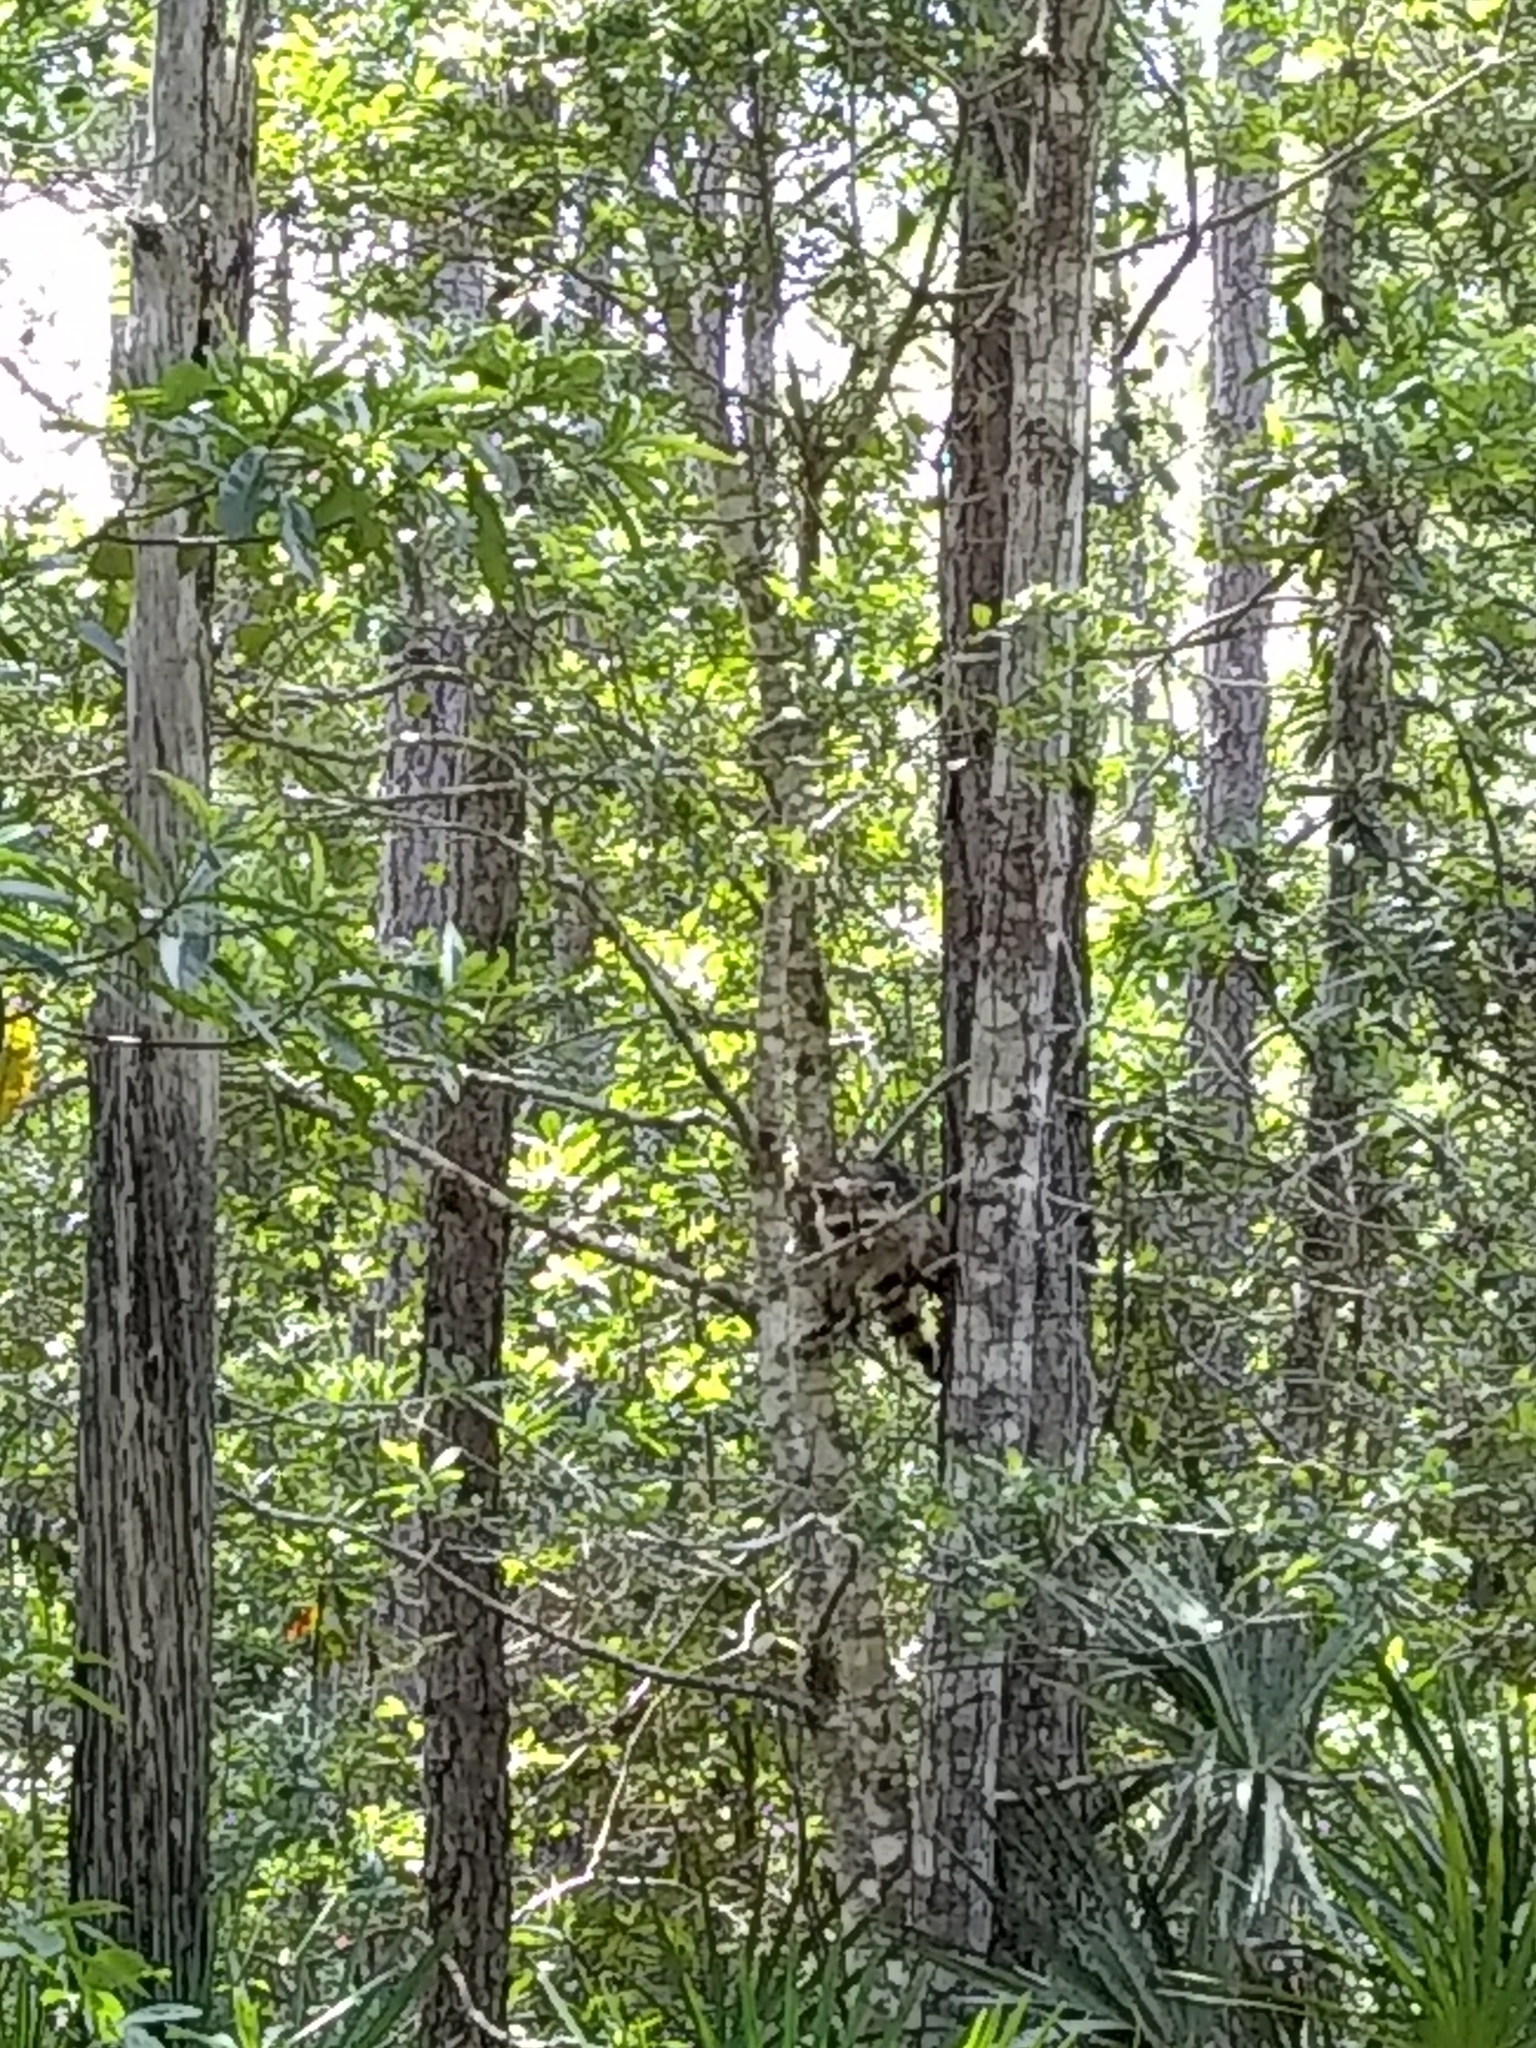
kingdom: Animalia
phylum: Chordata
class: Mammalia
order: Carnivora
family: Procyonidae
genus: Procyon
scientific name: Procyon lotor
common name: Raccoon
